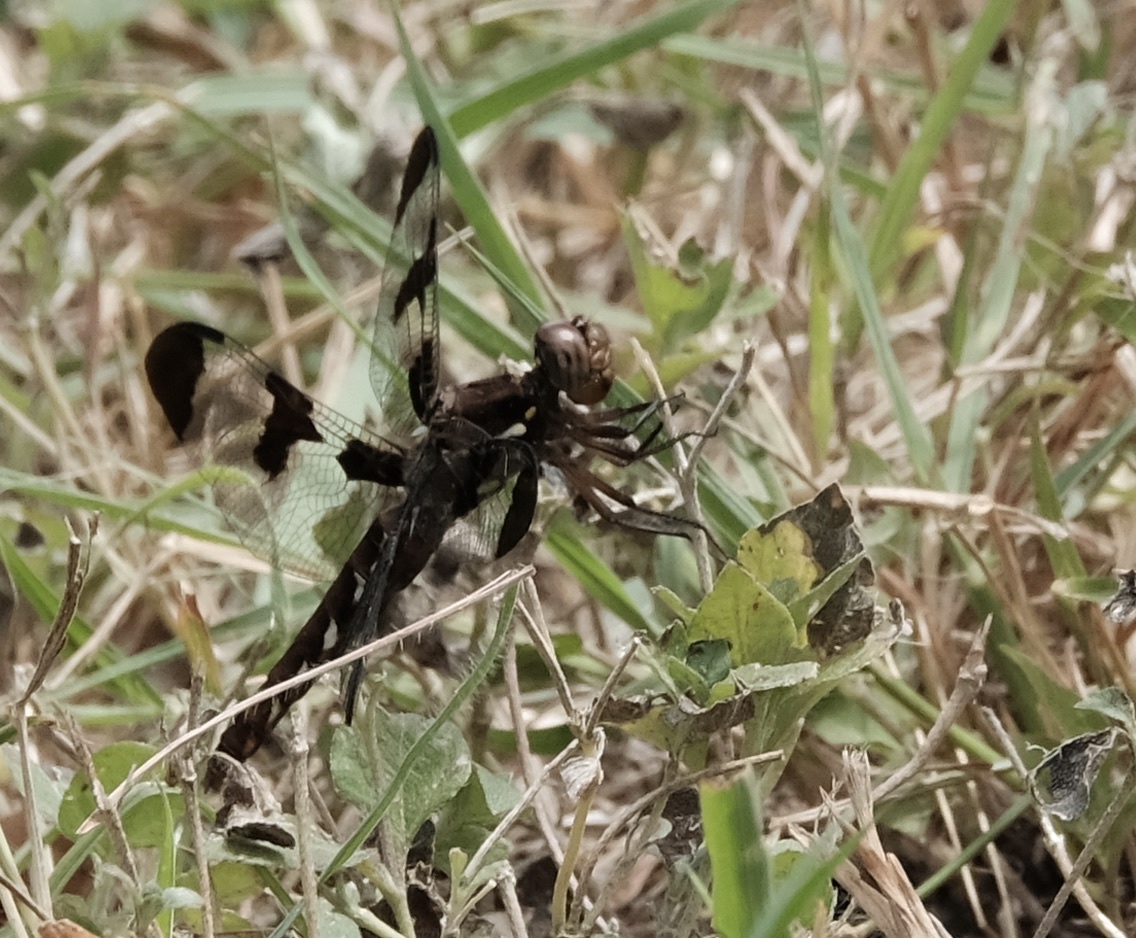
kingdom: Animalia
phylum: Arthropoda
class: Insecta
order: Odonata
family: Libellulidae
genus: Plathemis
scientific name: Plathemis lydia
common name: Common whitetail
